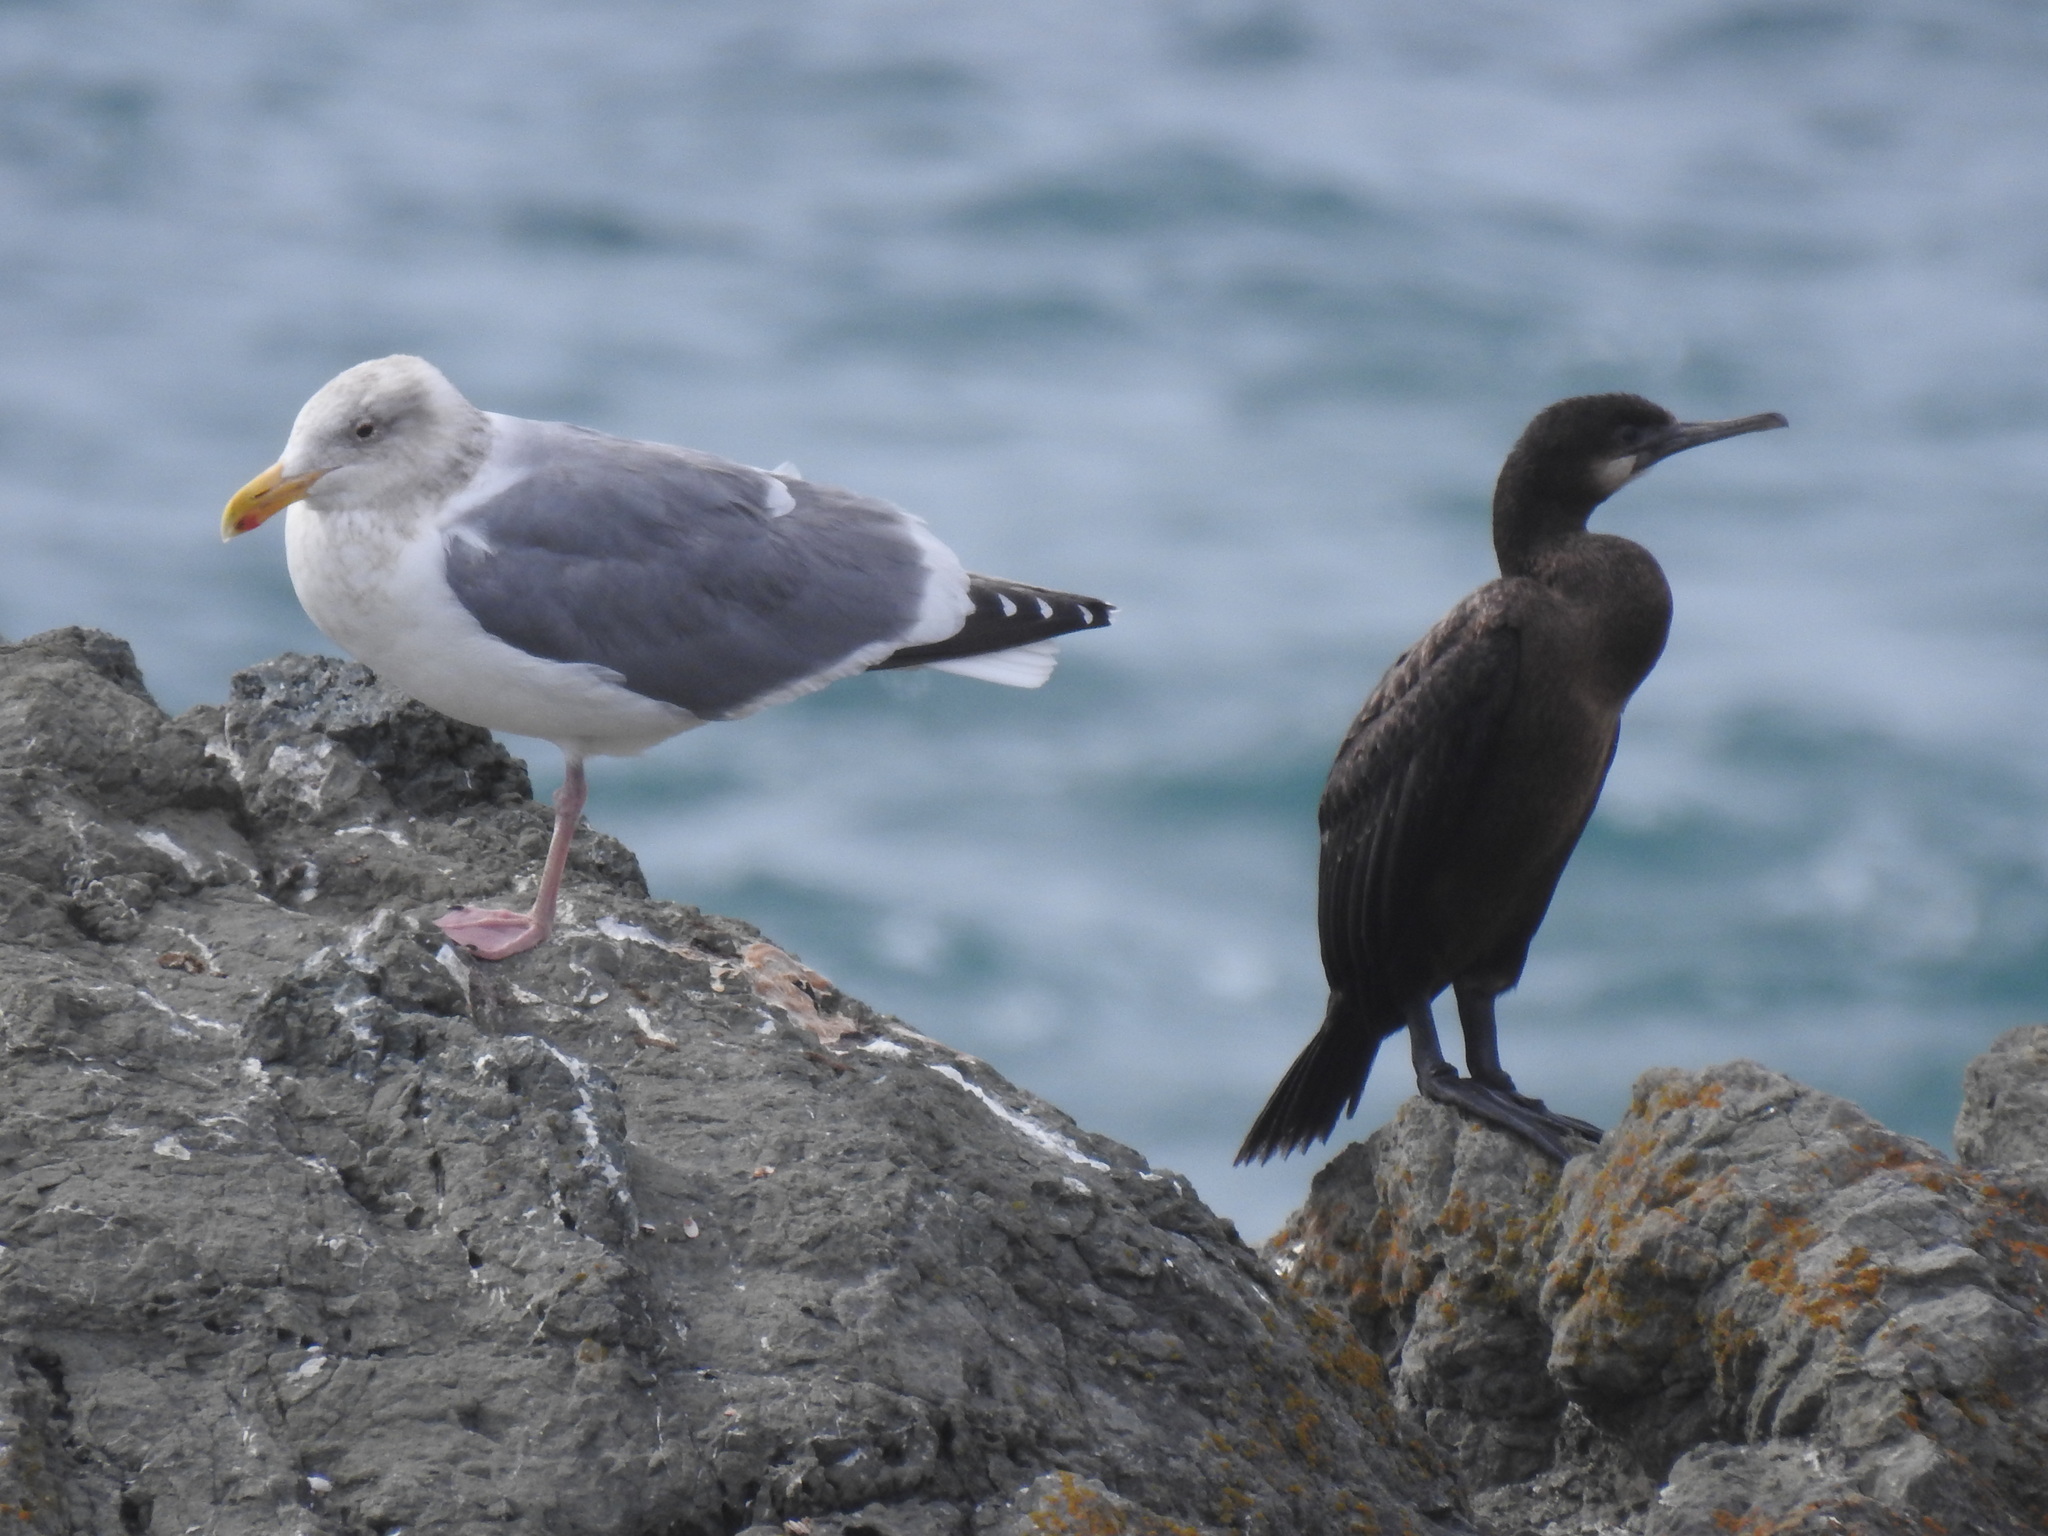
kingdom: Animalia
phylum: Chordata
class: Aves
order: Suliformes
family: Phalacrocoracidae
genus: Urile
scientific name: Urile penicillatus
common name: Brandt's cormorant
